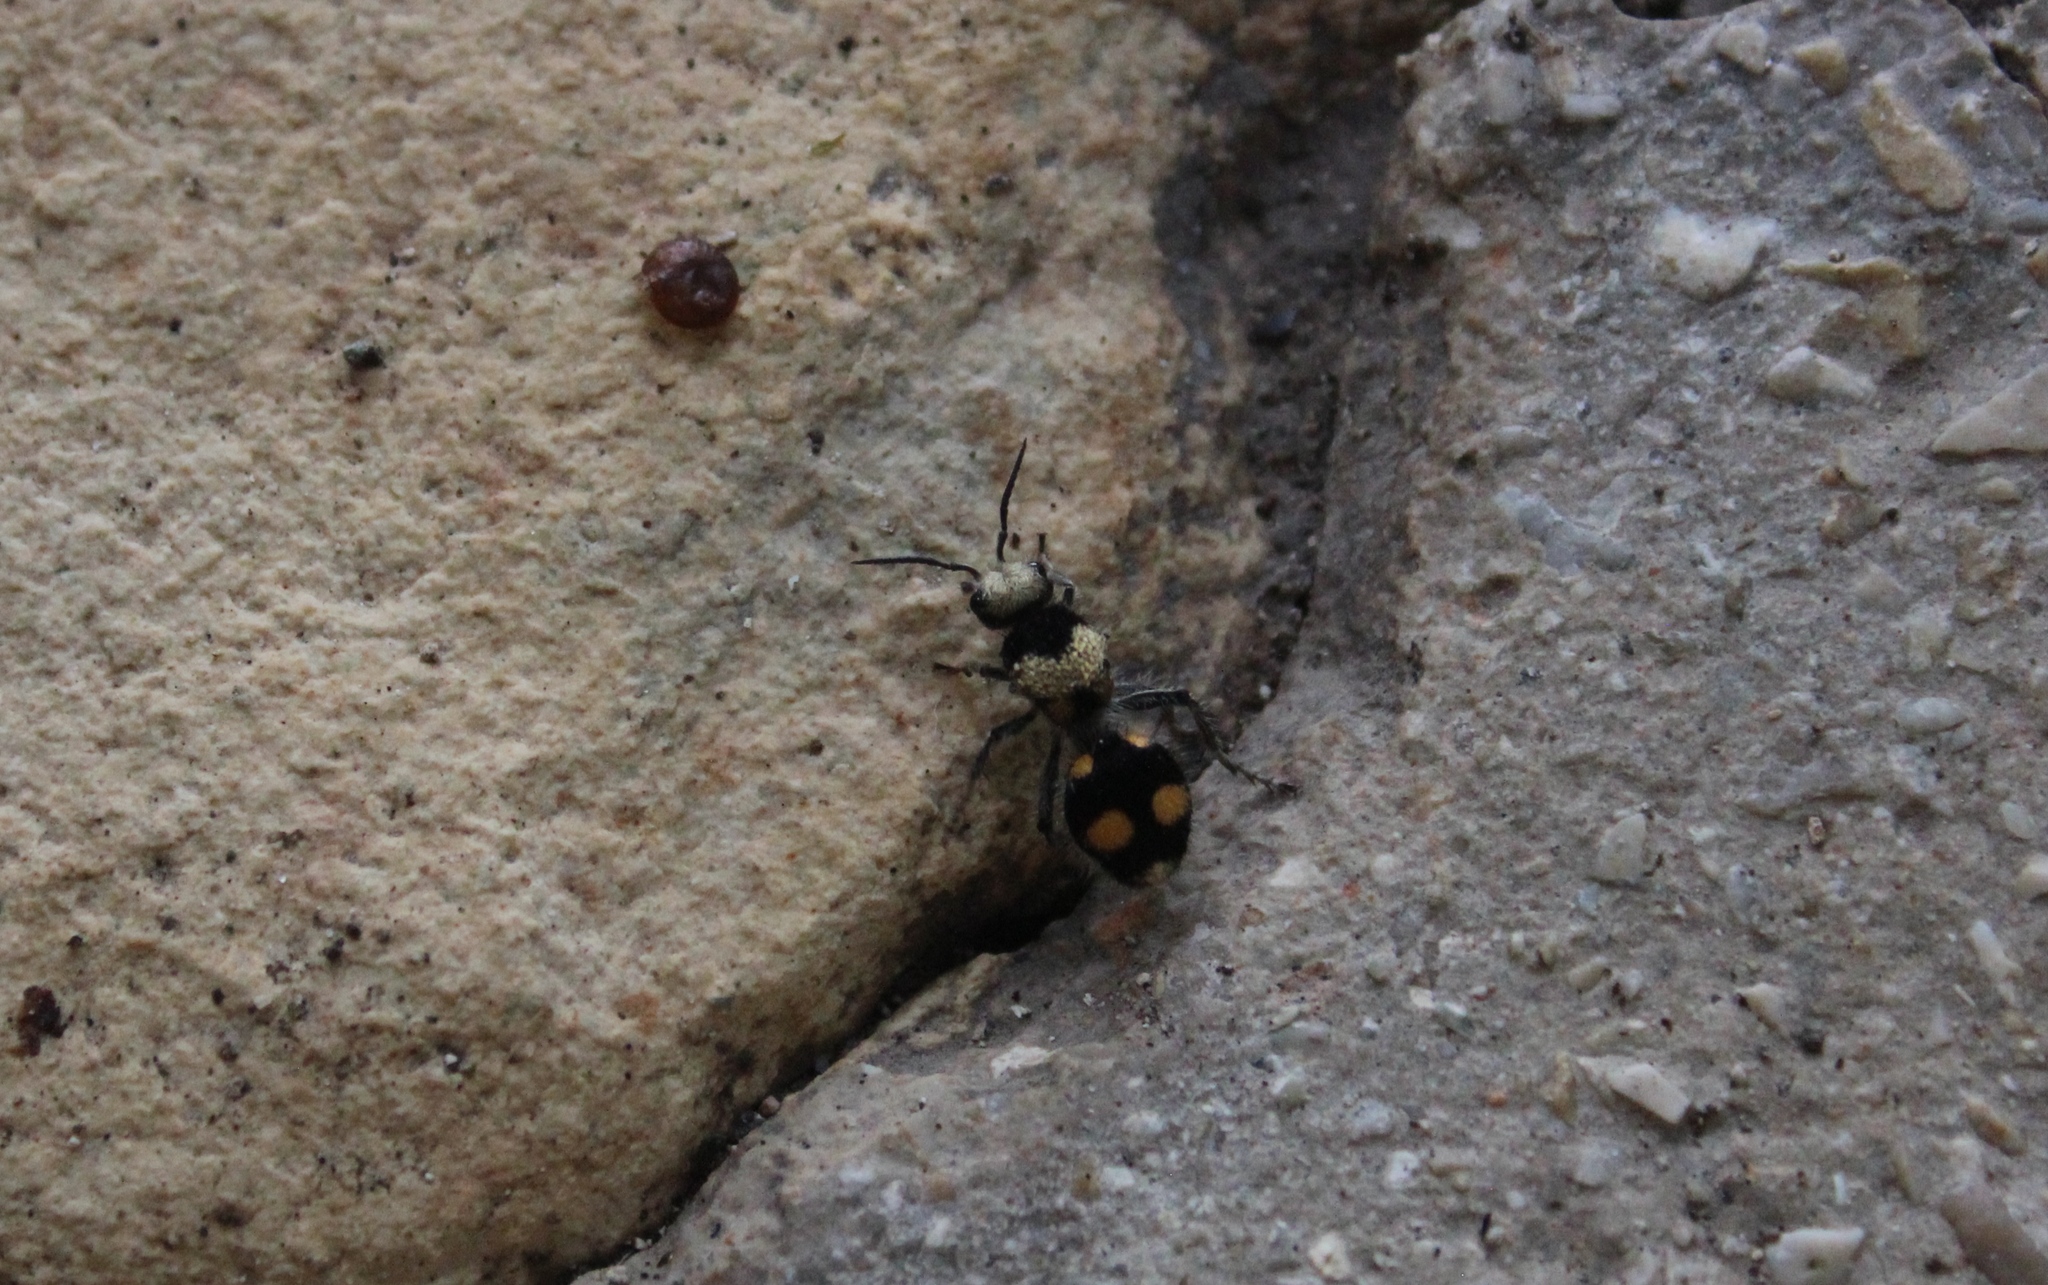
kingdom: Animalia
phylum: Arthropoda
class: Insecta
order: Hymenoptera
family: Mutillidae
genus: Dasymutilla
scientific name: Dasymutilla
